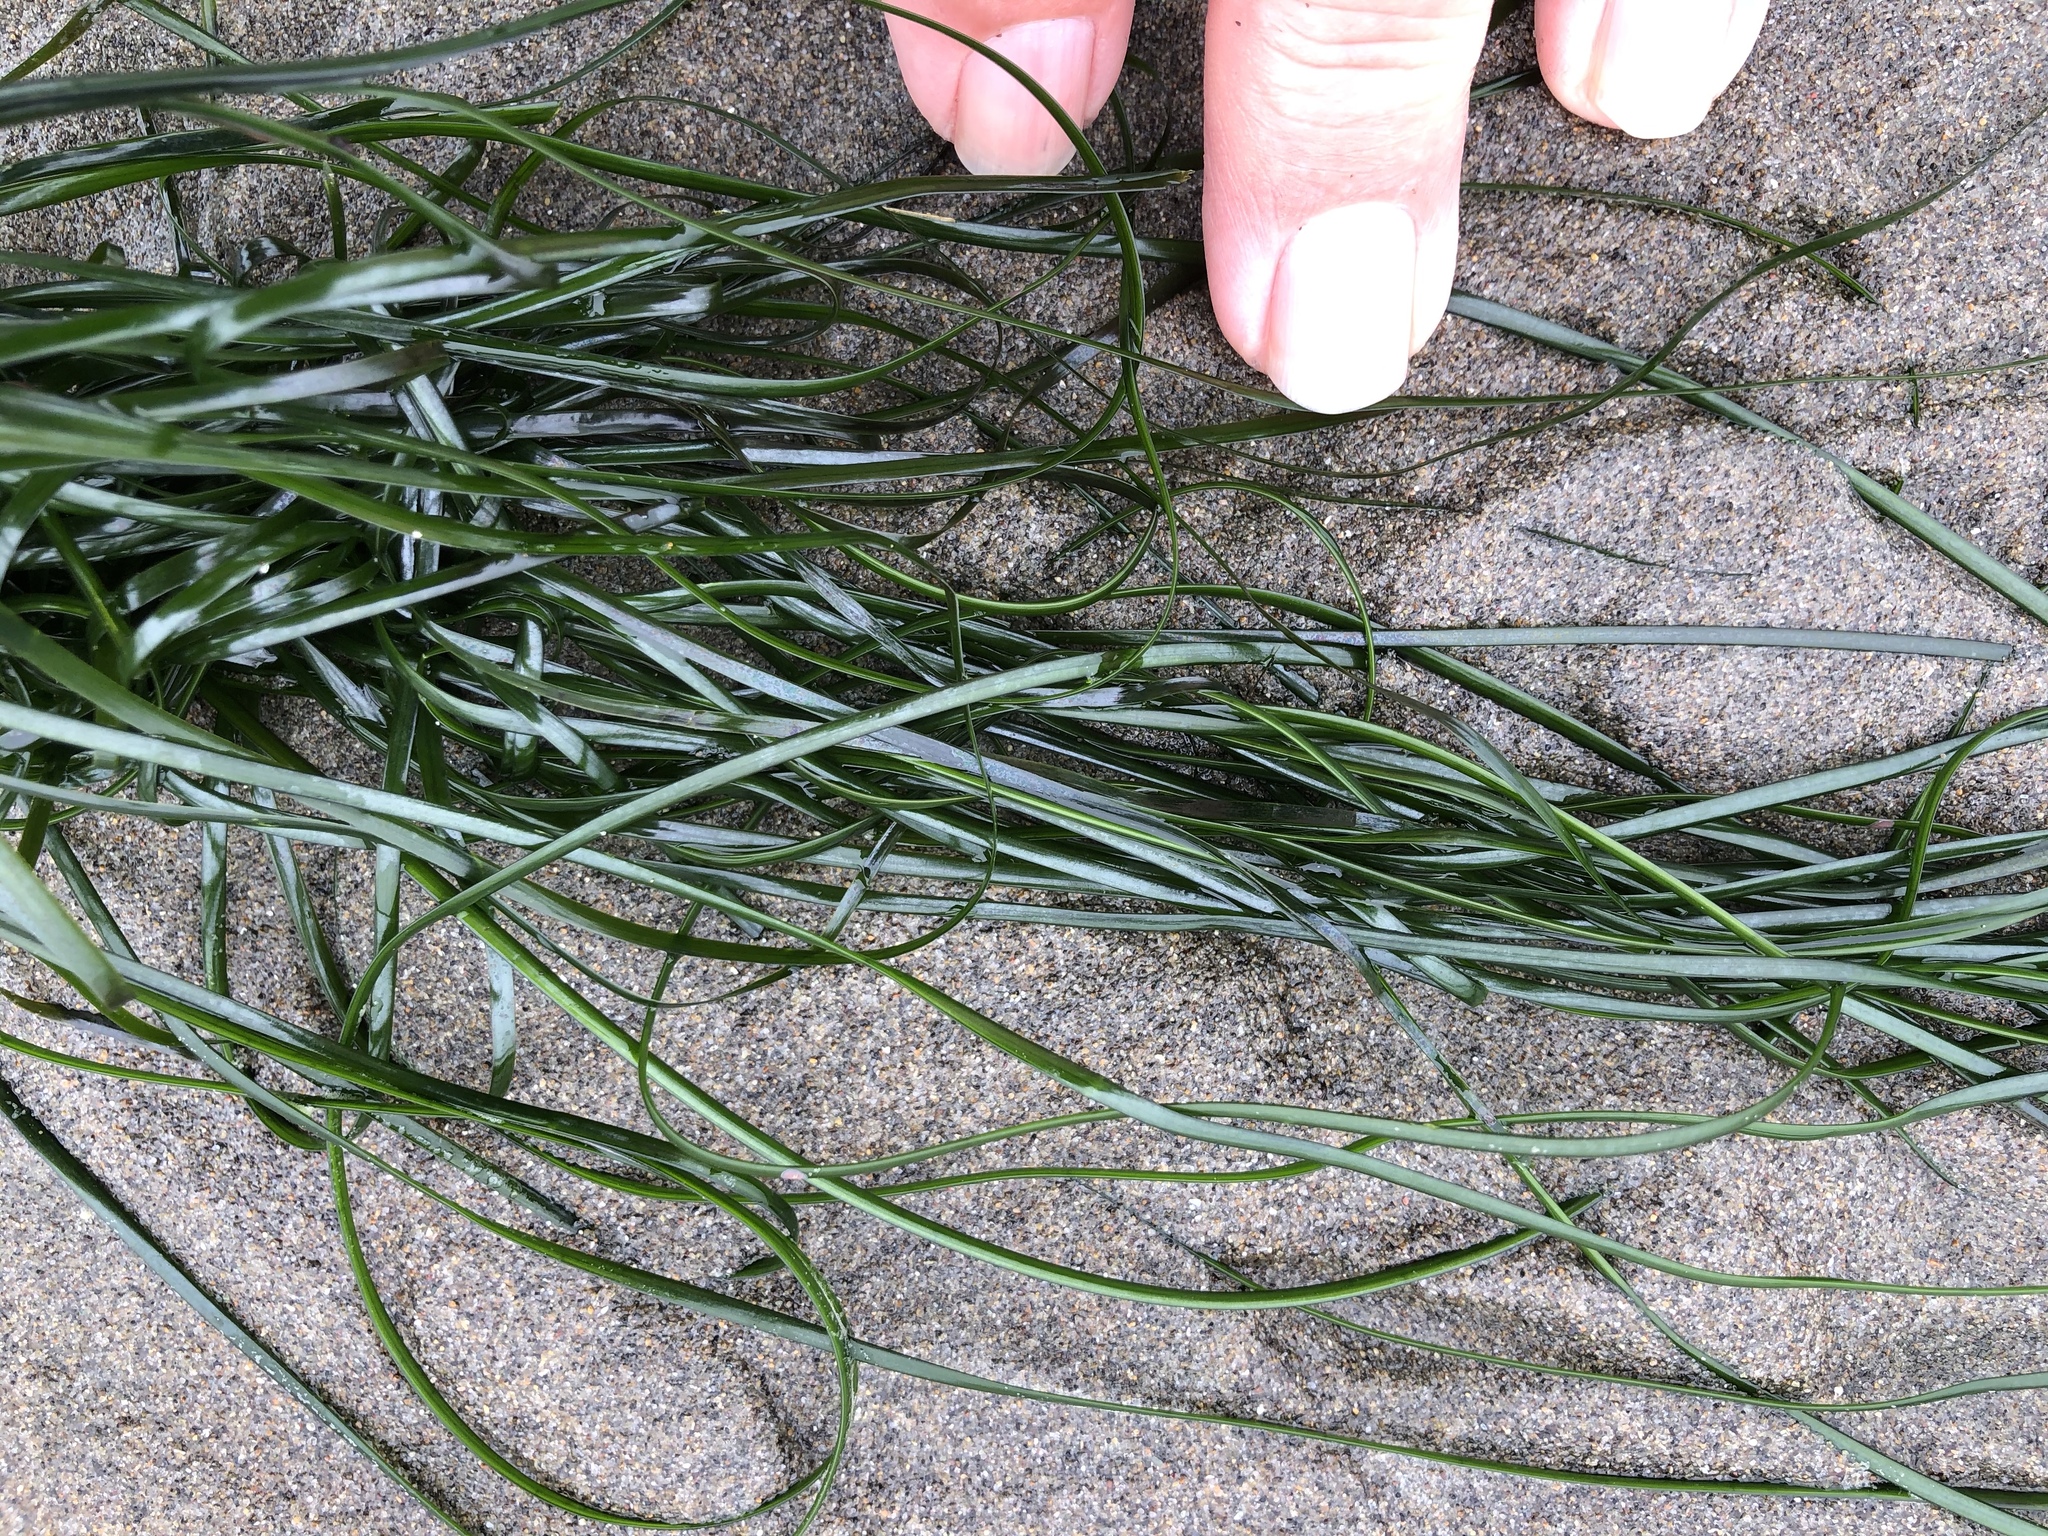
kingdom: Plantae
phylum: Tracheophyta
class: Liliopsida
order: Alismatales
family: Zosteraceae
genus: Phyllospadix
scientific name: Phyllospadix torreyi
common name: Surfgrass
